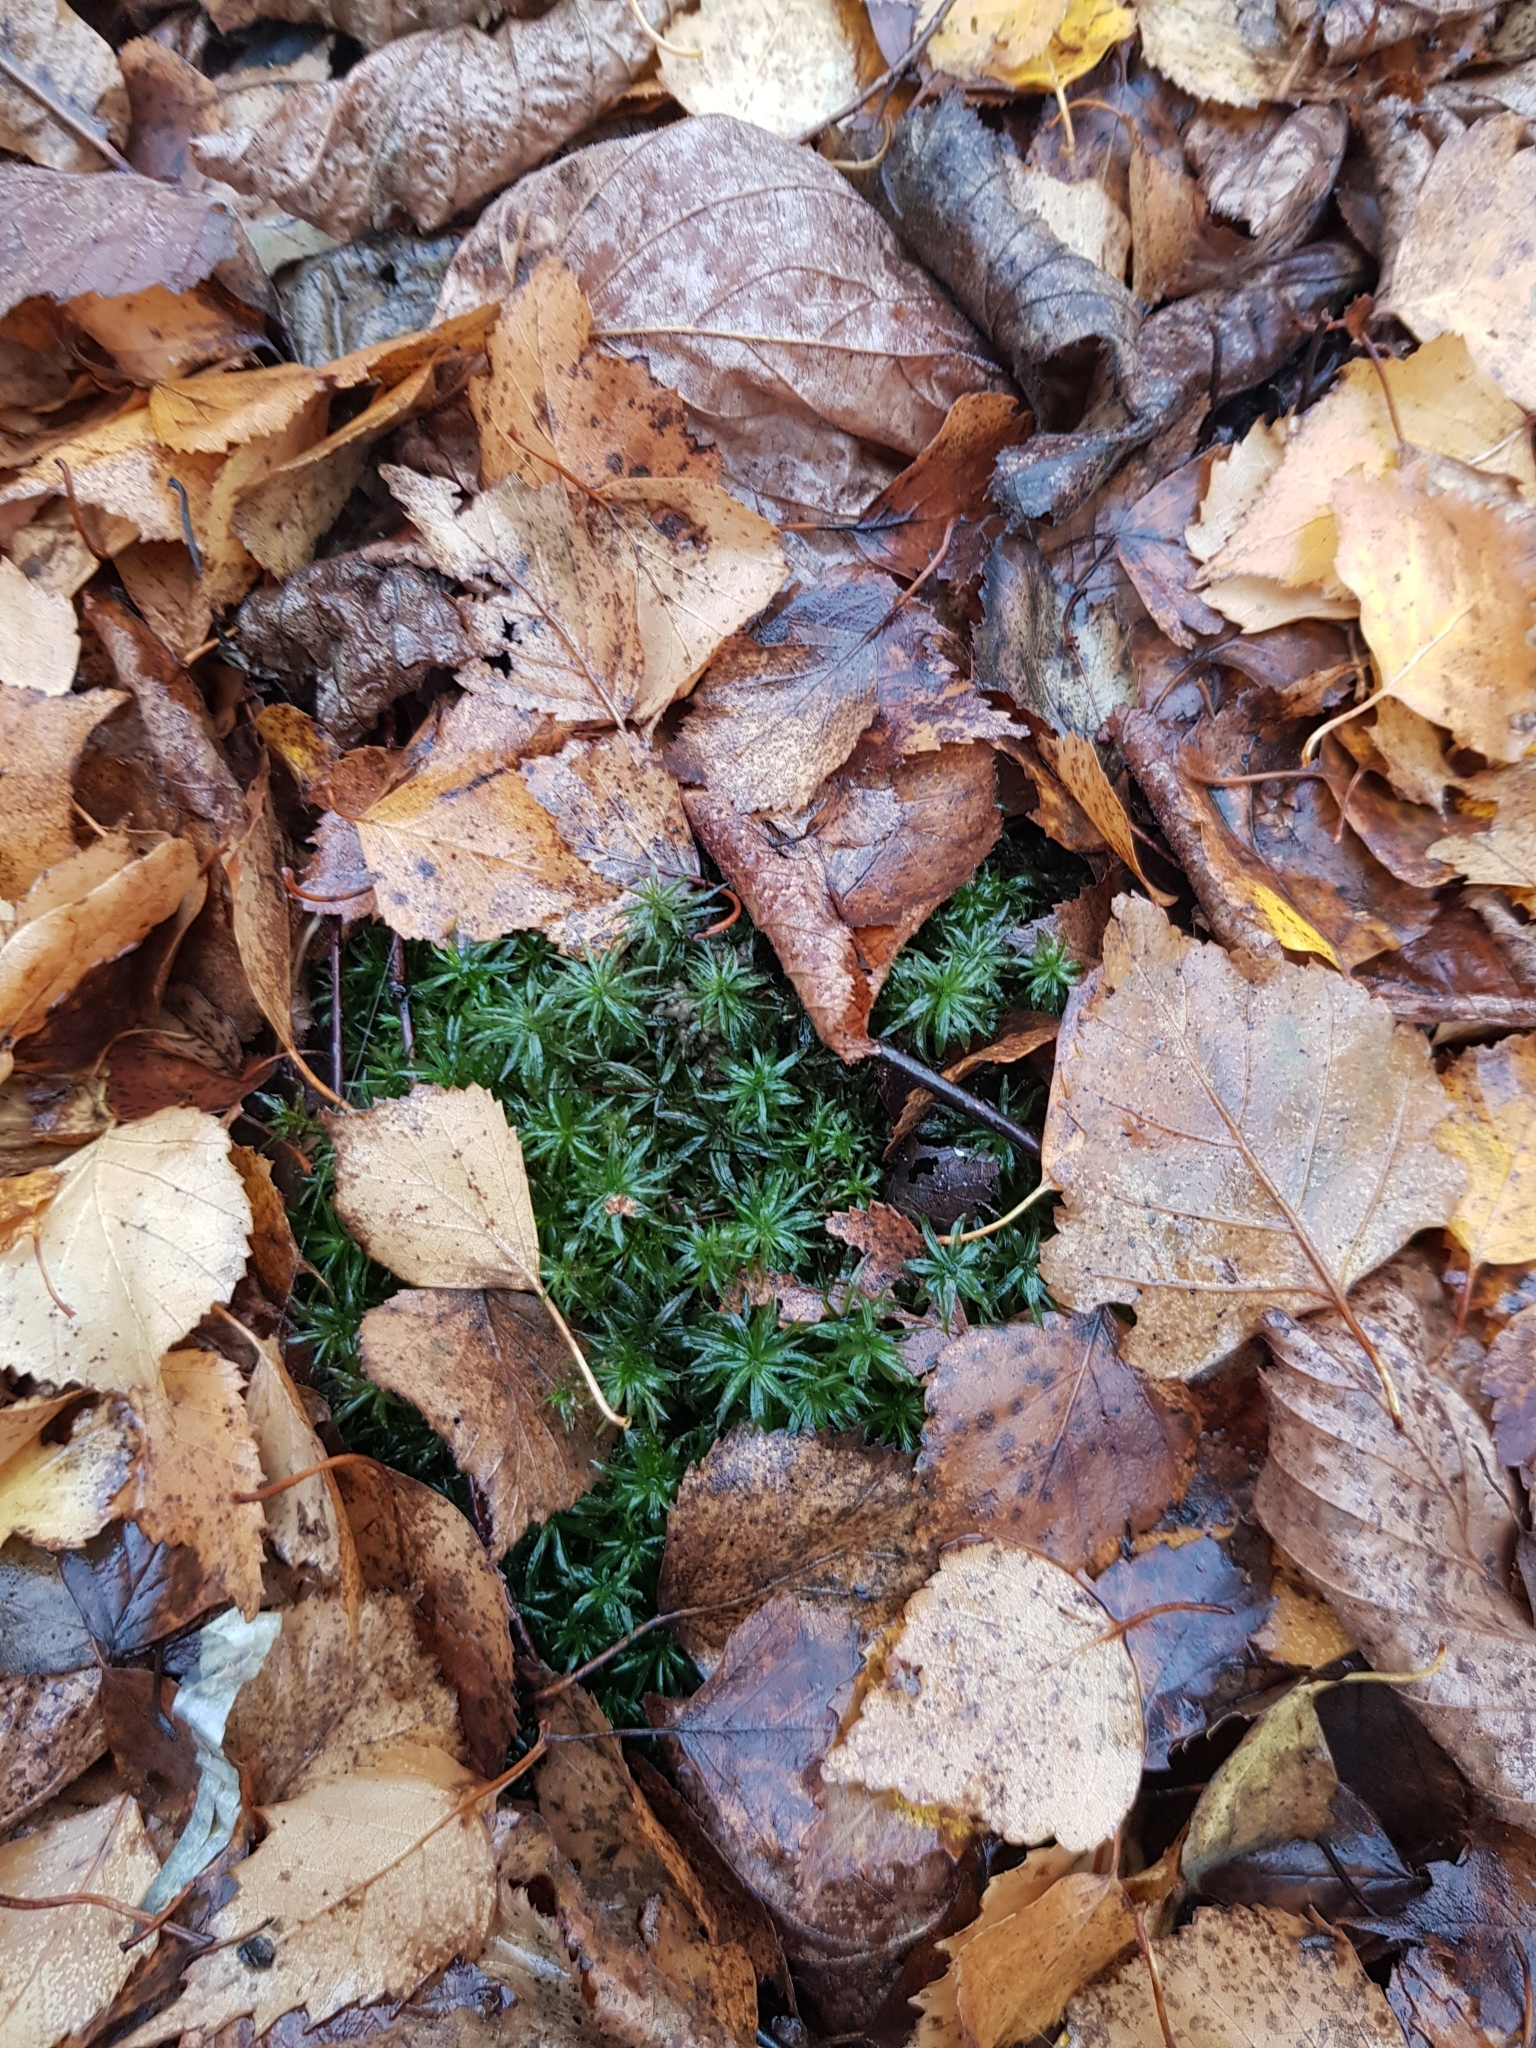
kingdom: Plantae
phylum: Bryophyta
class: Polytrichopsida
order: Polytrichales
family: Polytrichaceae
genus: Atrichum
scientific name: Atrichum undulatum
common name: Common smoothcap
